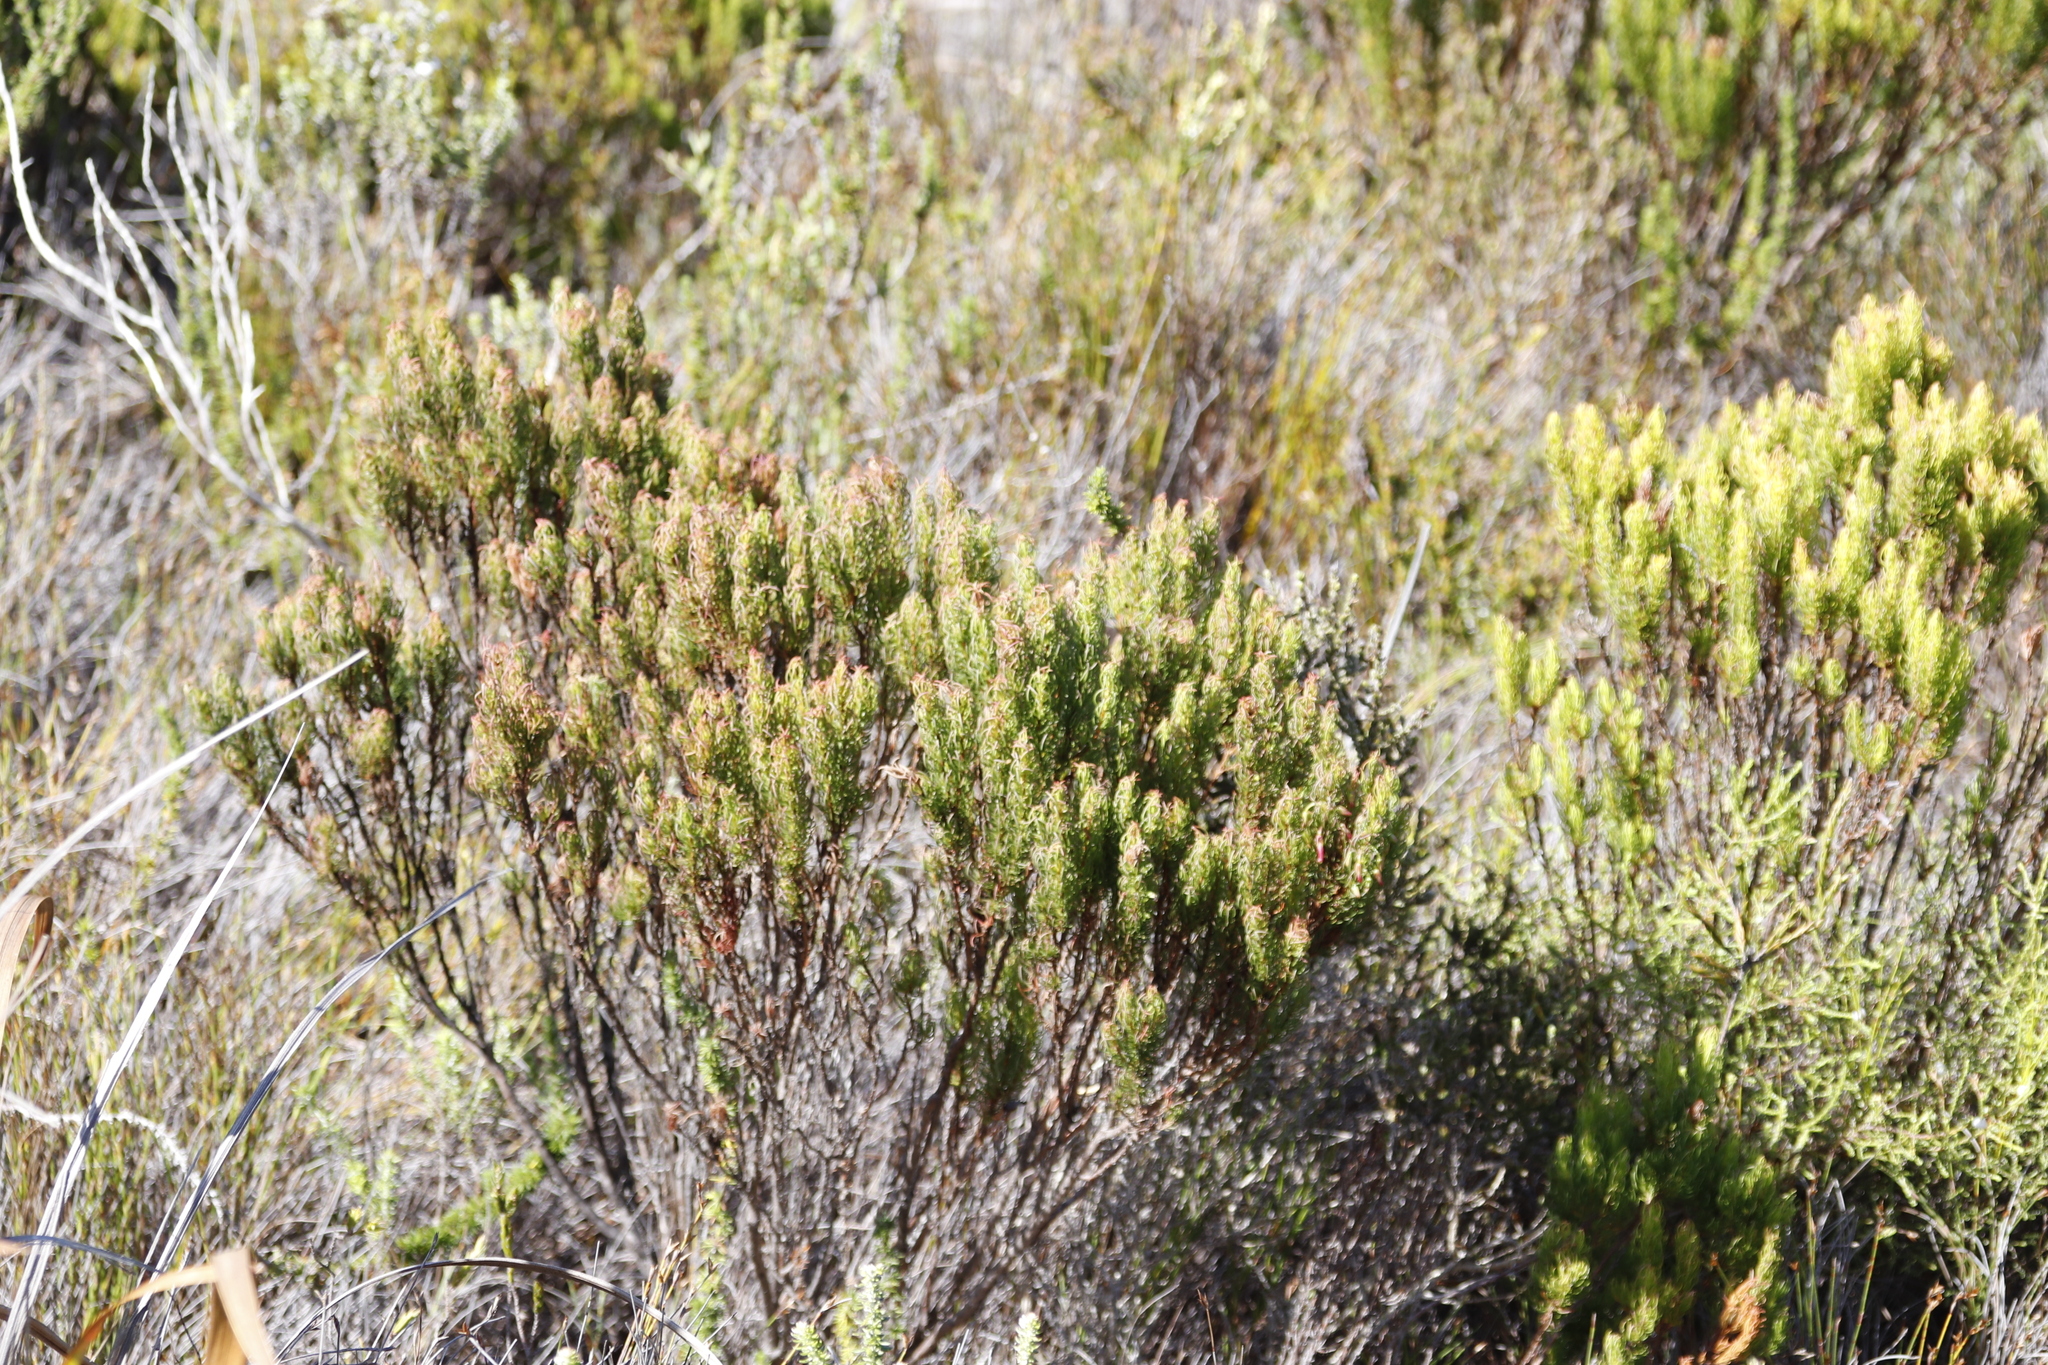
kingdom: Plantae
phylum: Tracheophyta
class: Magnoliopsida
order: Ericales
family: Ericaceae
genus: Erica
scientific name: Erica plukenetii
